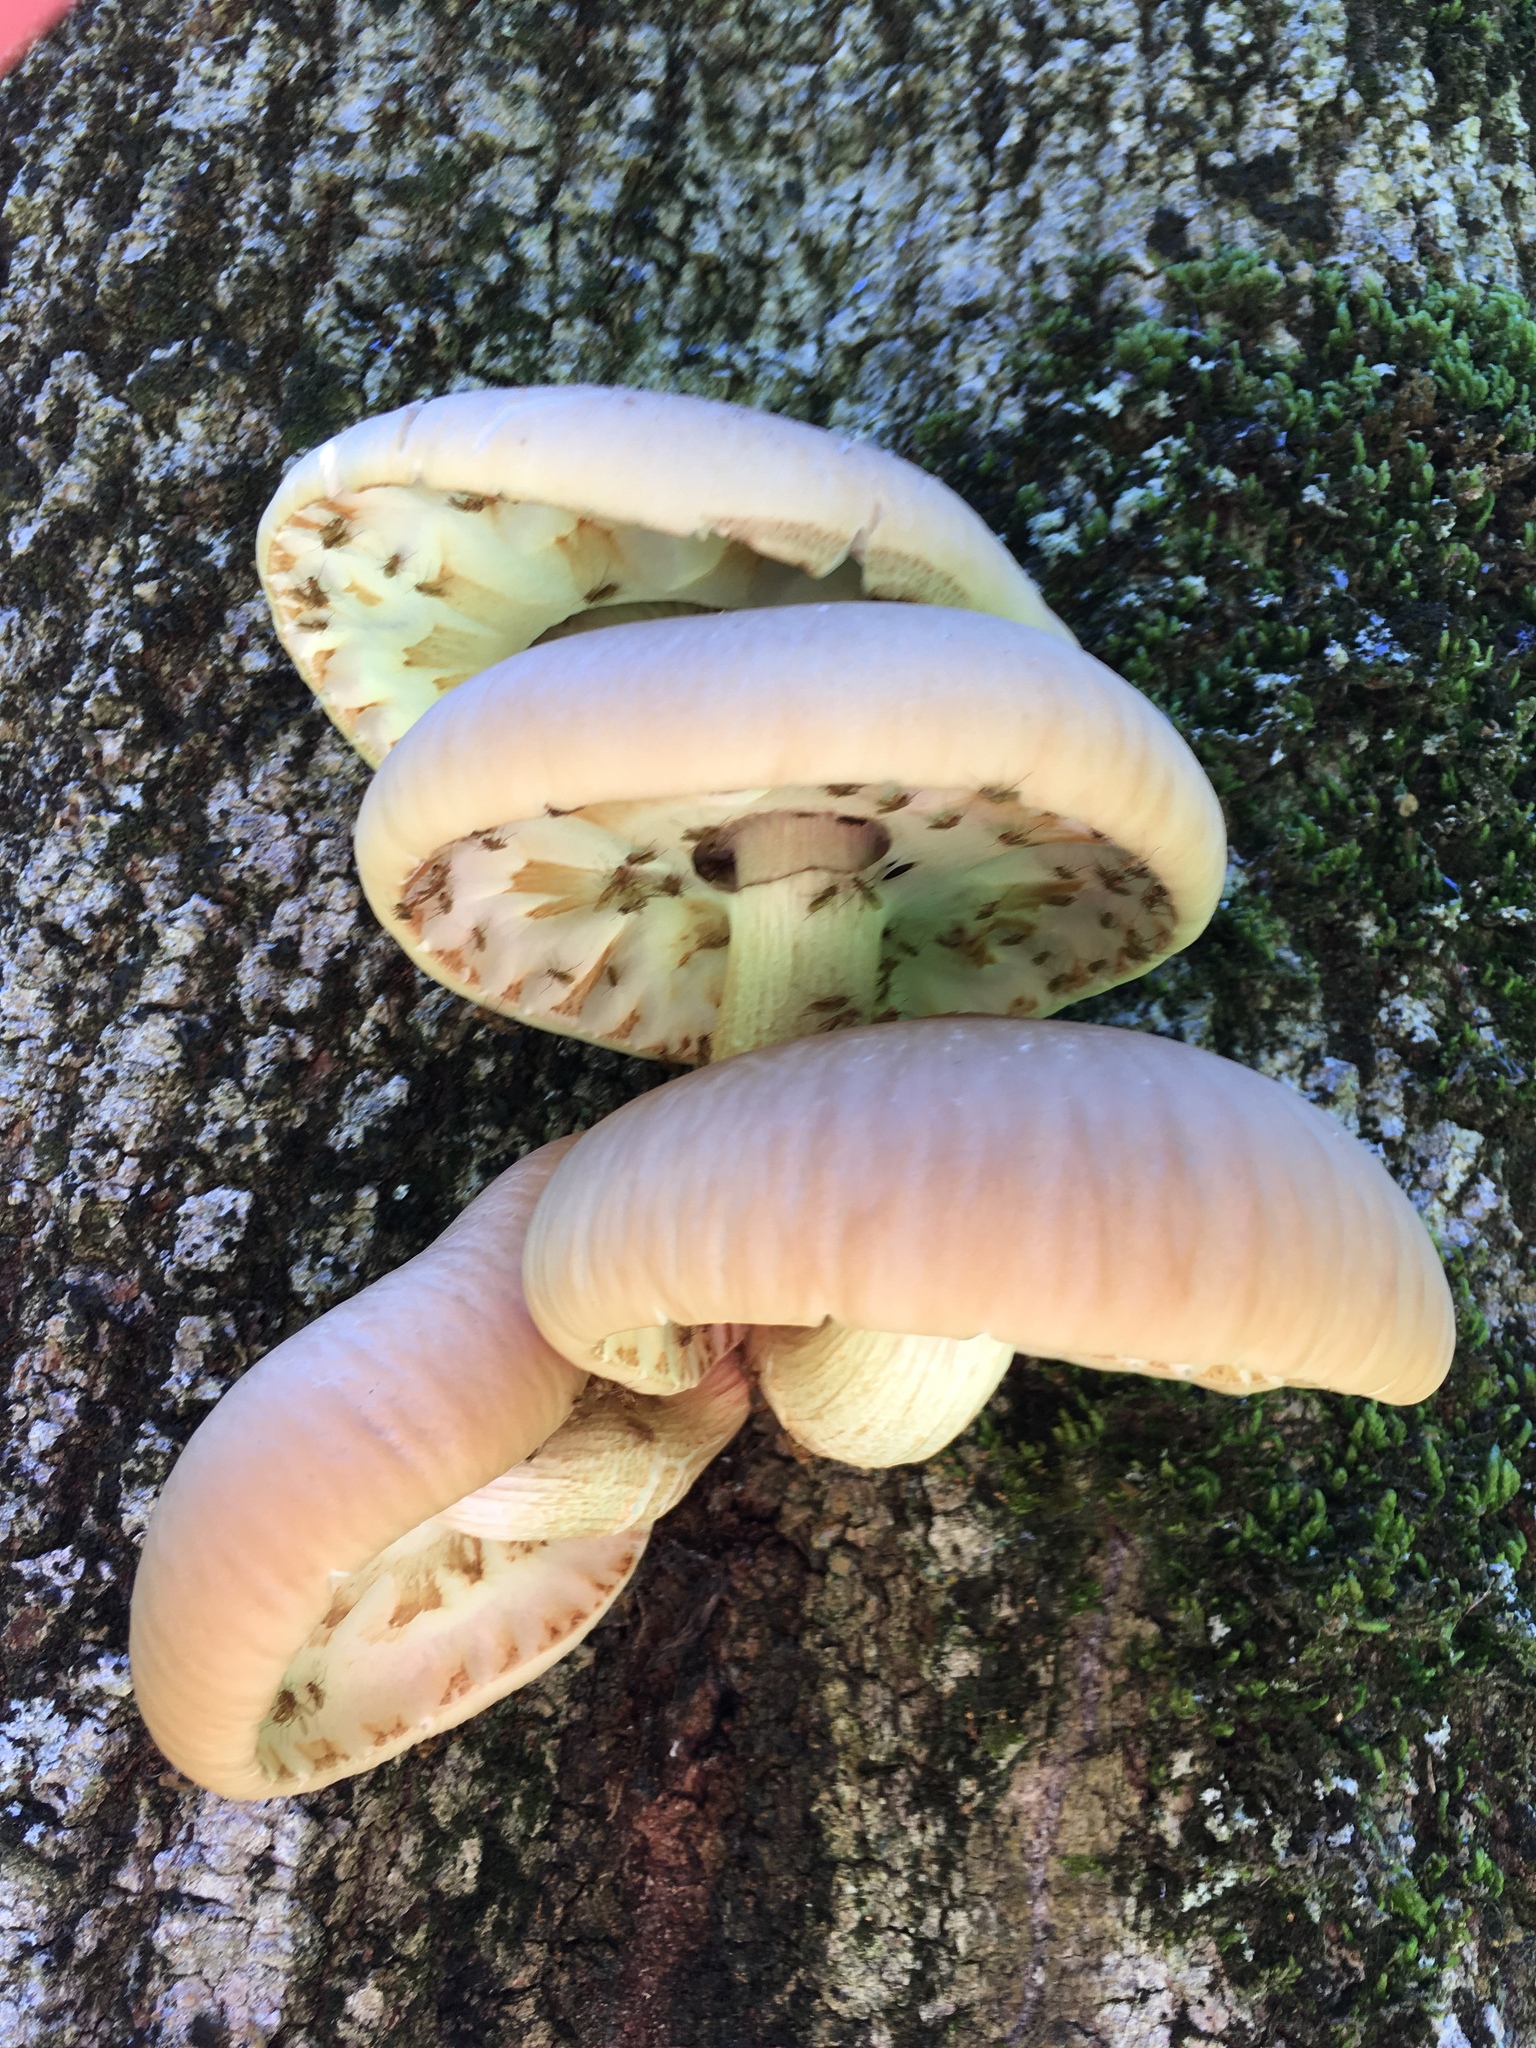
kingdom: Fungi
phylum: Basidiomycota
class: Agaricomycetes
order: Agaricales
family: Tubariaceae
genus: Cyclocybe
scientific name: Cyclocybe parasitica
